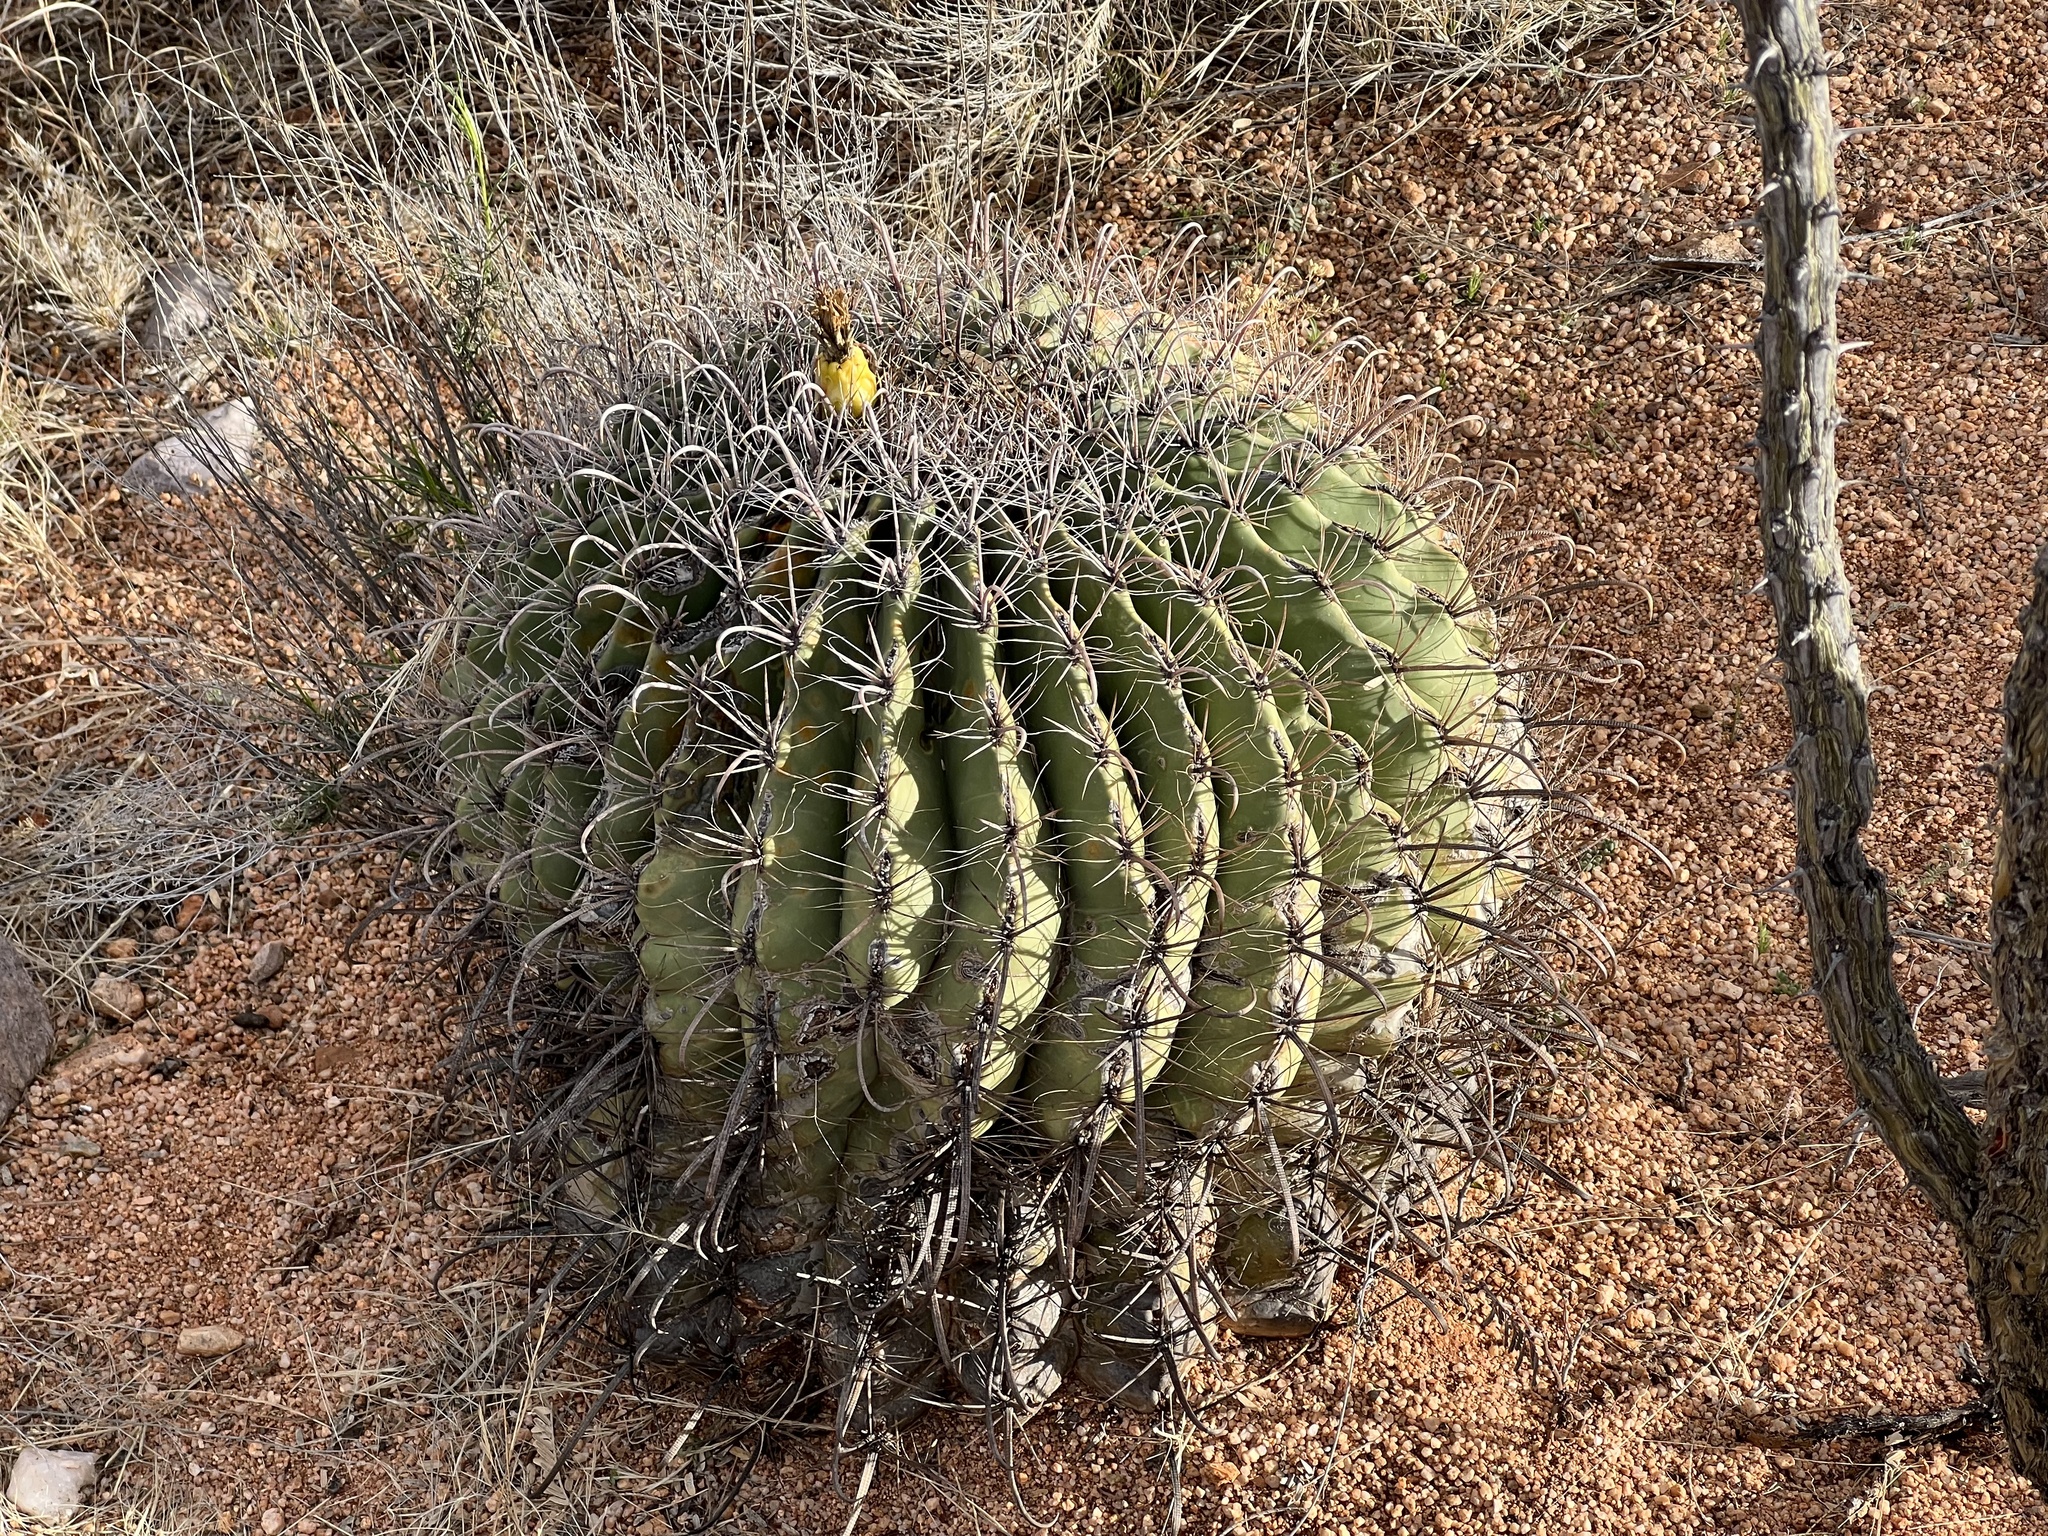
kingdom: Plantae
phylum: Tracheophyta
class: Magnoliopsida
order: Caryophyllales
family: Cactaceae
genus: Ferocactus
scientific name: Ferocactus wislizeni
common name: Candy barrel cactus
